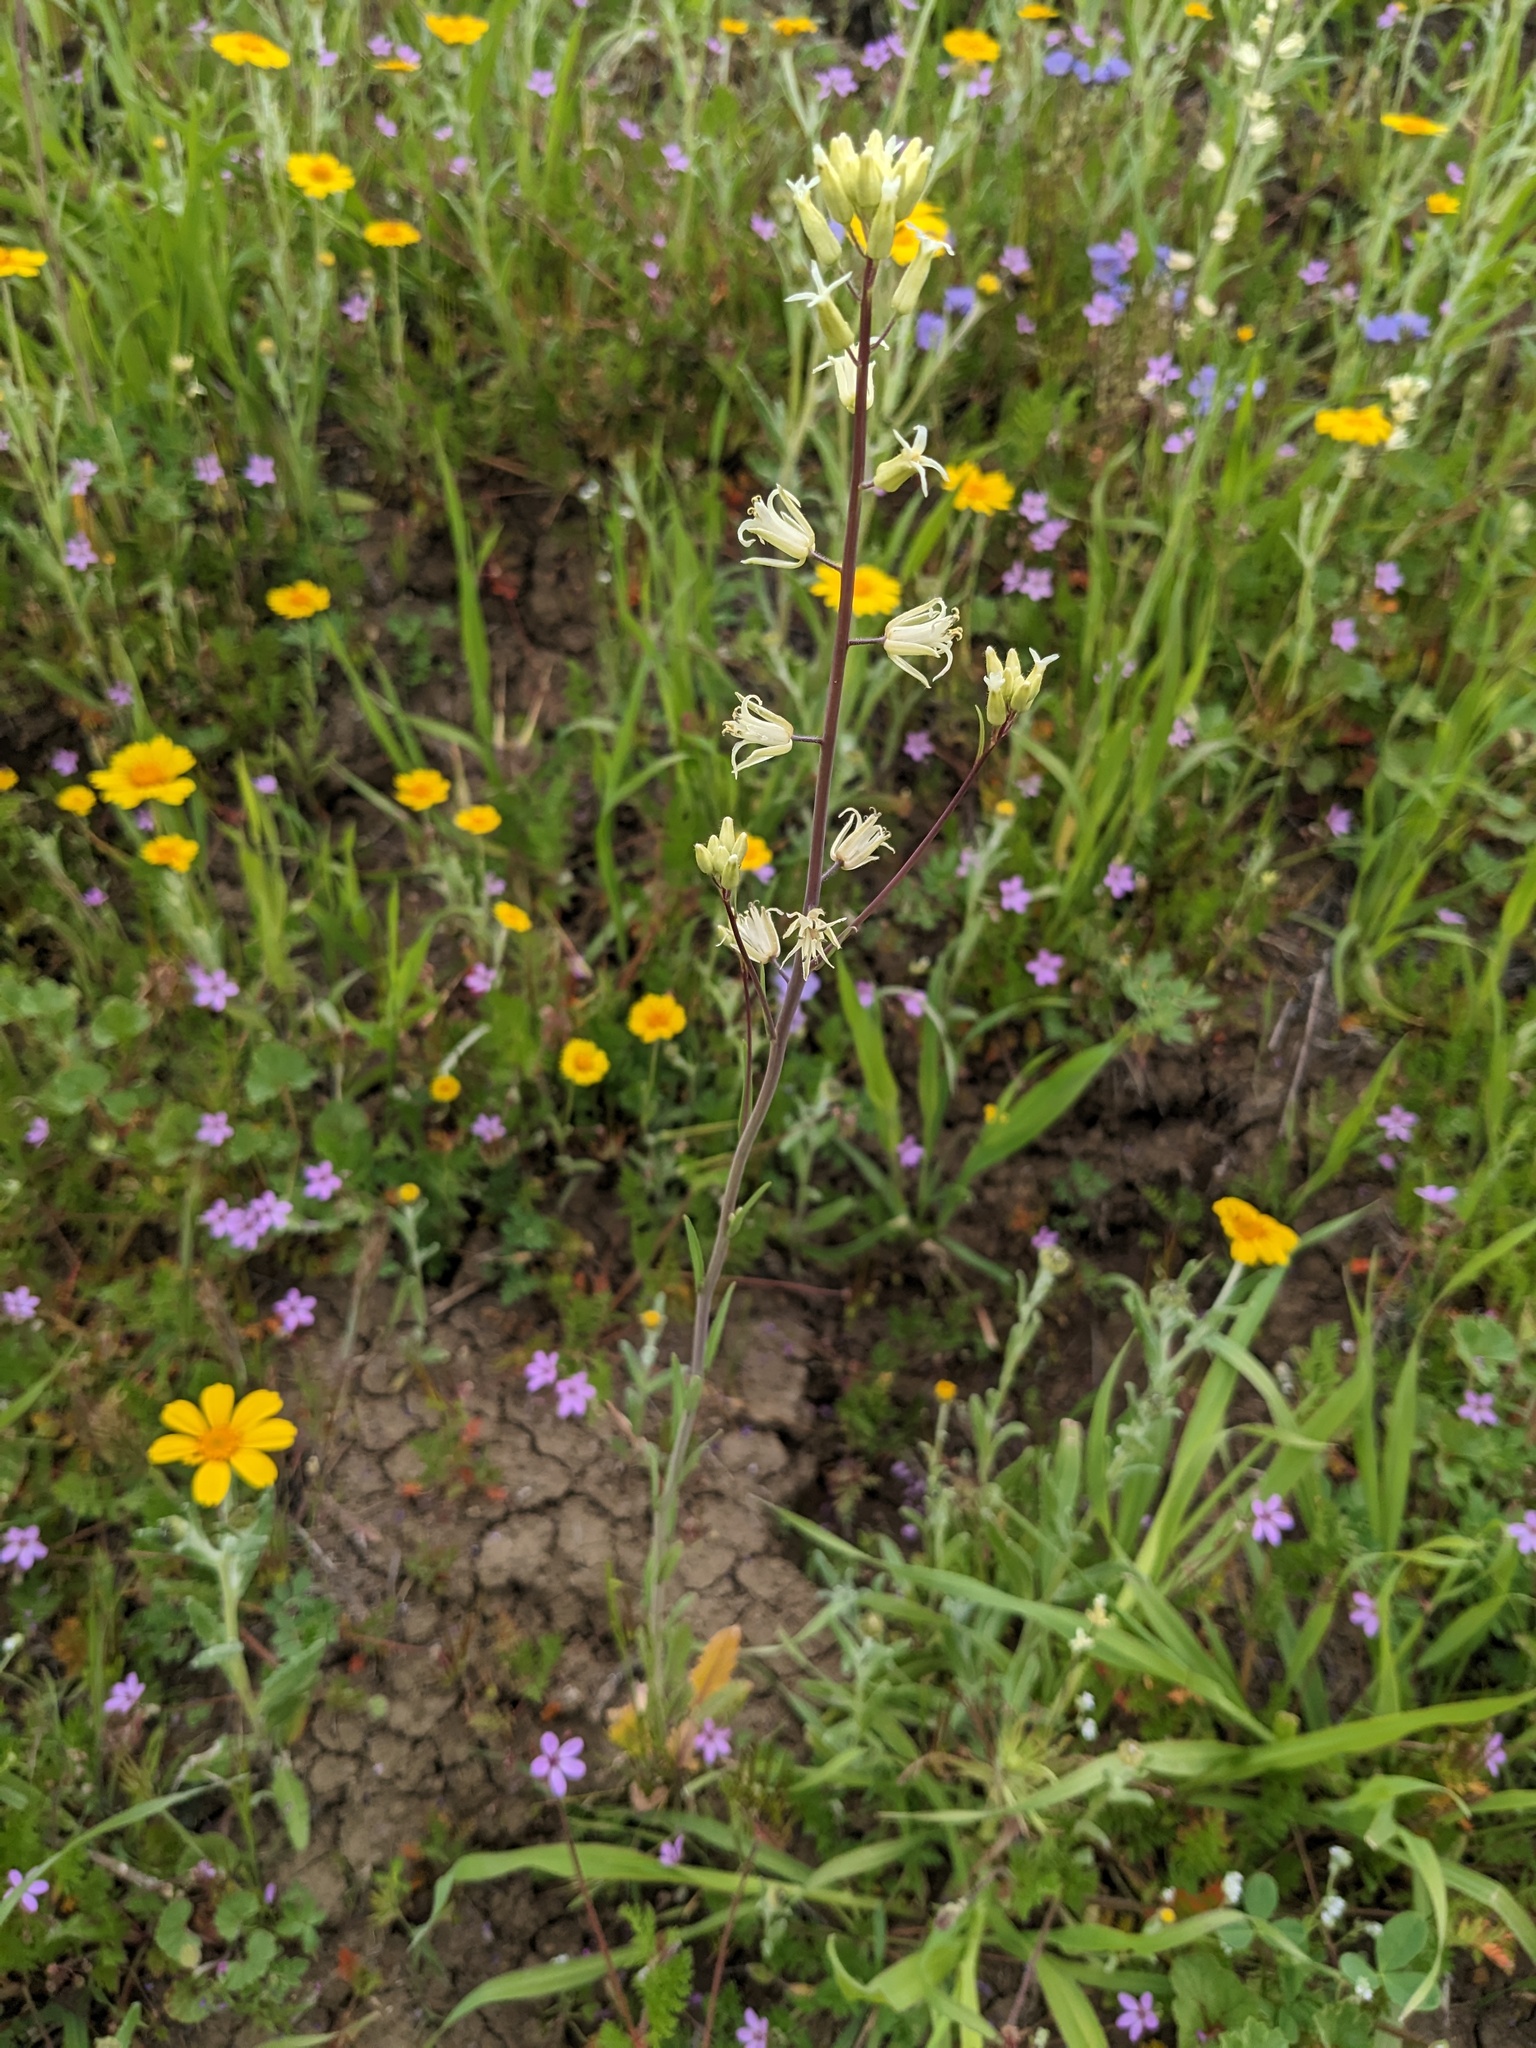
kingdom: Plantae
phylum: Tracheophyta
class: Magnoliopsida
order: Brassicales
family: Brassicaceae
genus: Streptanthus
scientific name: Streptanthus flavescens
